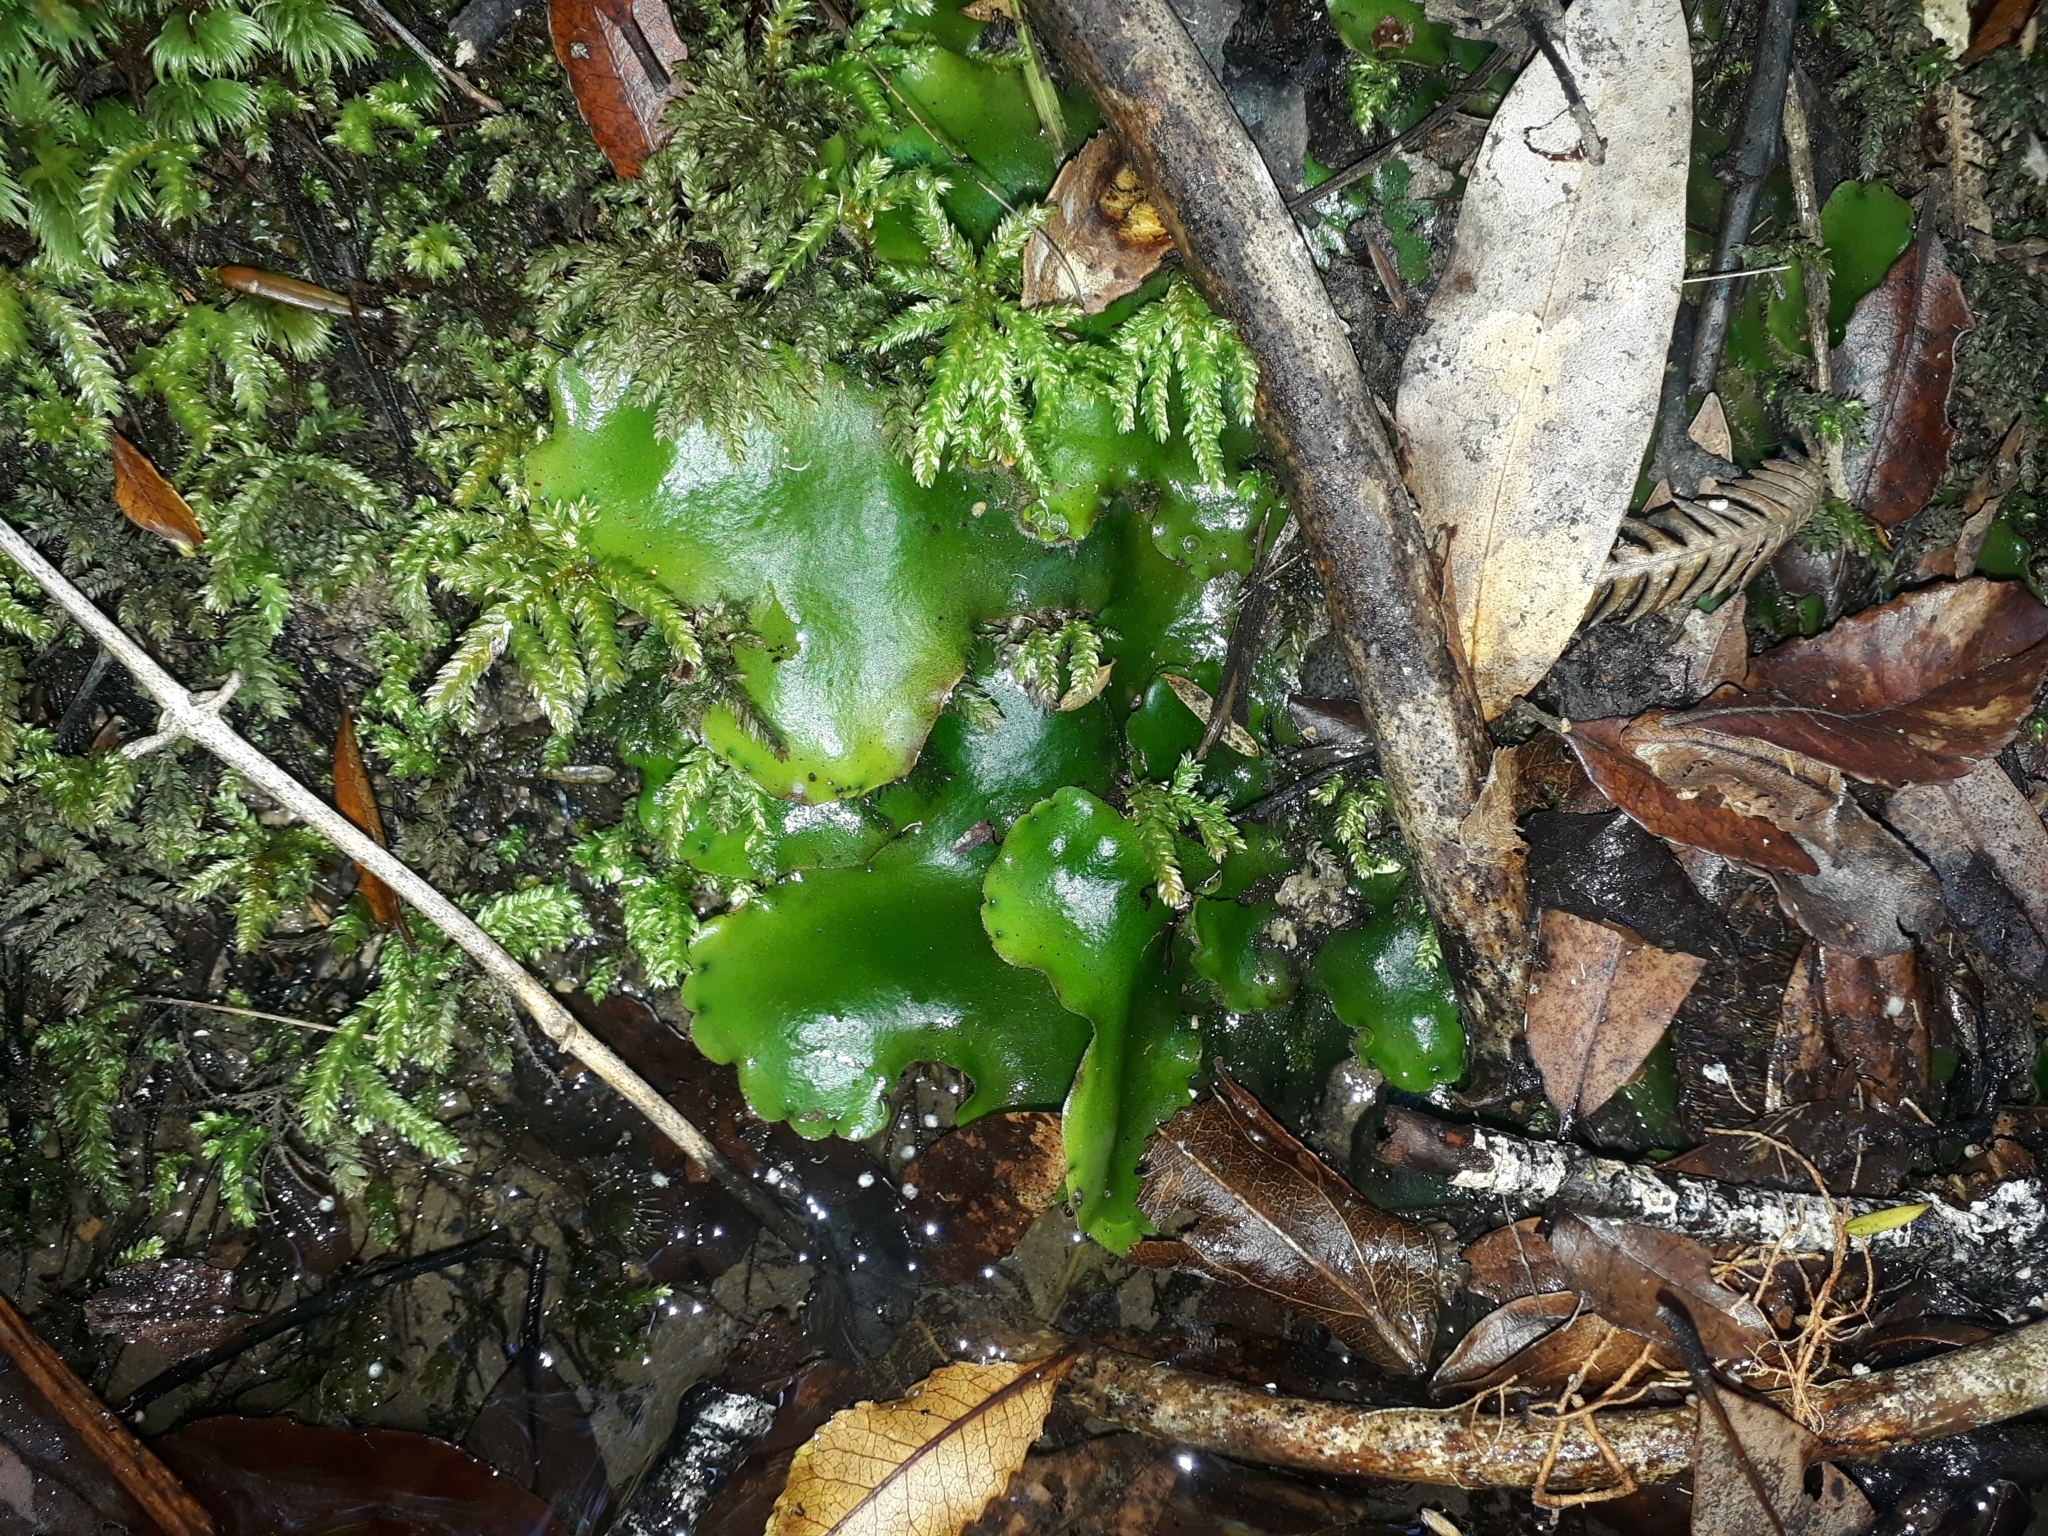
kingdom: Plantae
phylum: Marchantiophyta
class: Marchantiopsida
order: Marchantiales
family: Monocleaceae
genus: Monoclea
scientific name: Monoclea forsteri
